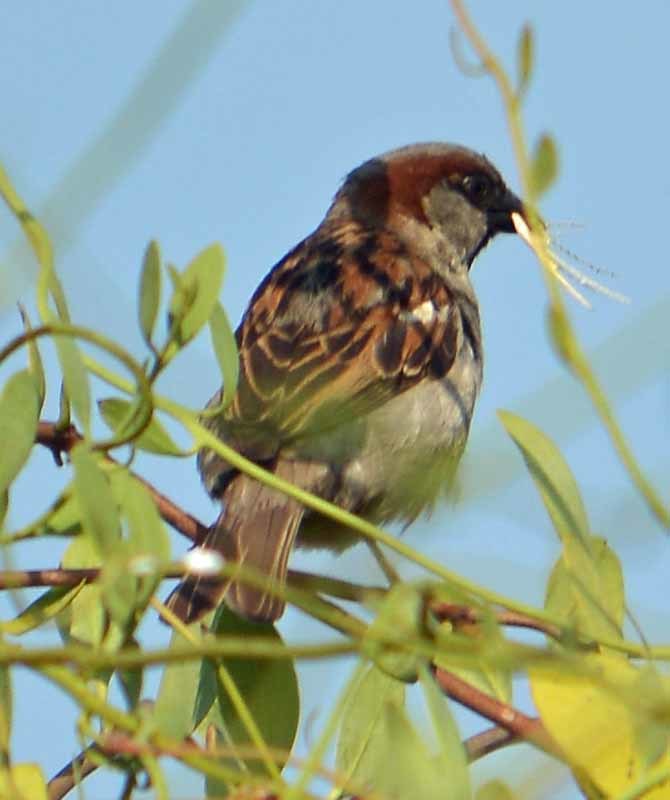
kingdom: Animalia
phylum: Chordata
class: Aves
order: Passeriformes
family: Passeridae
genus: Passer
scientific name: Passer domesticus
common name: House sparrow
